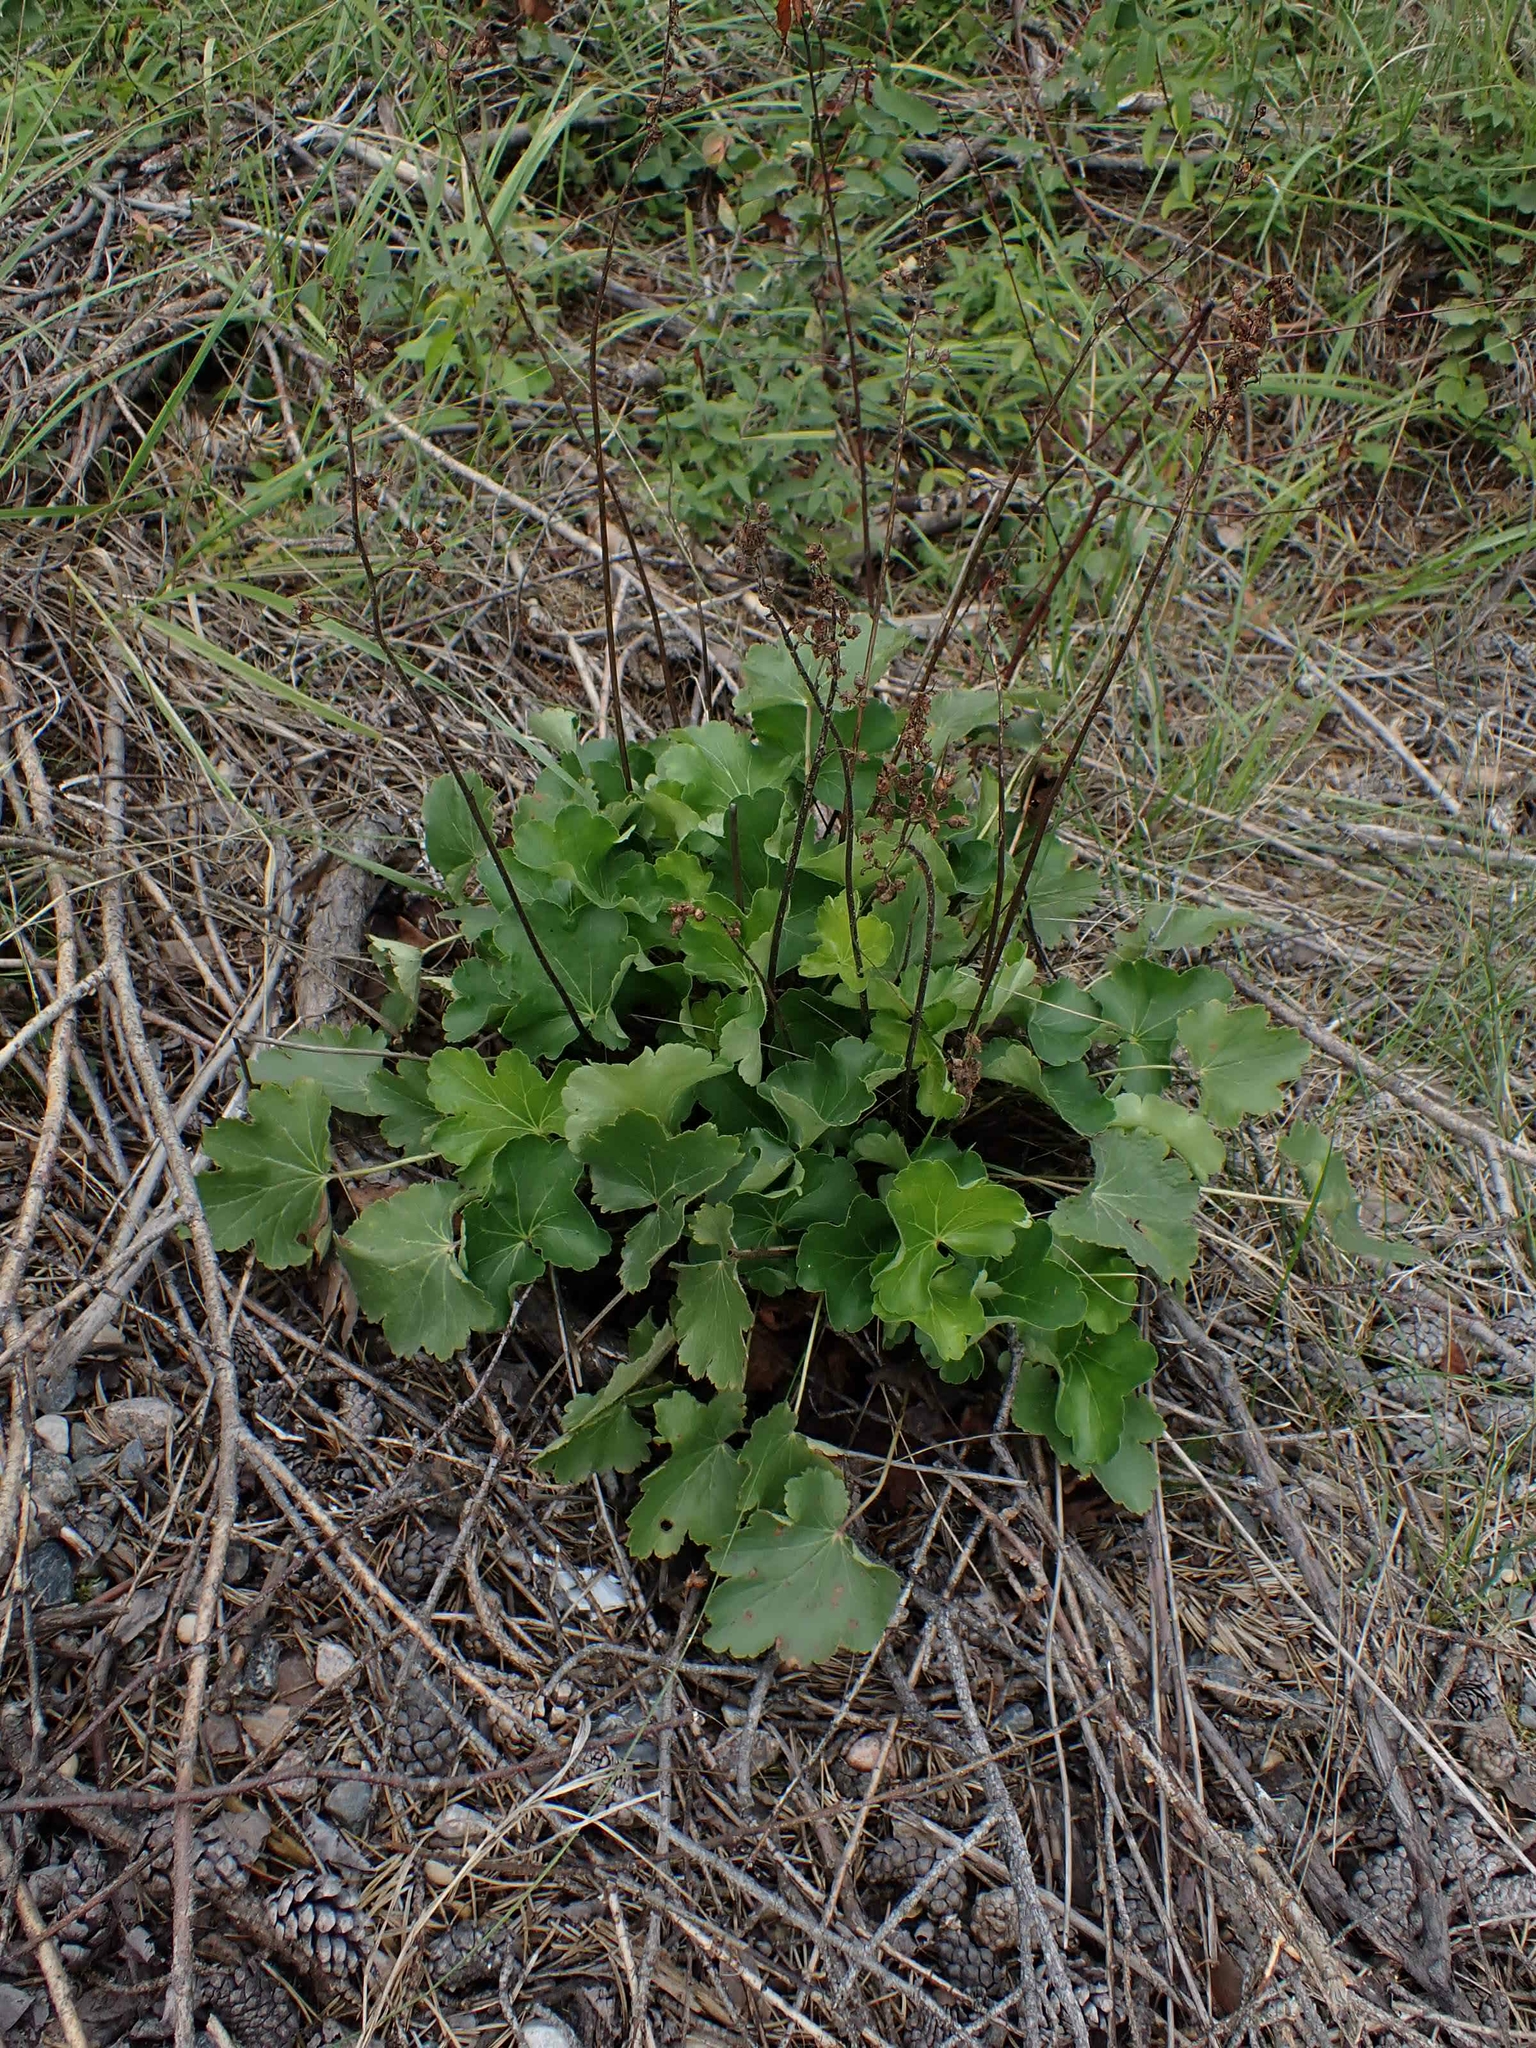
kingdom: Plantae
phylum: Tracheophyta
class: Magnoliopsida
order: Saxifragales
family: Saxifragaceae
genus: Heuchera
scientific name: Heuchera richardsonii
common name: Richardson's alumroot
